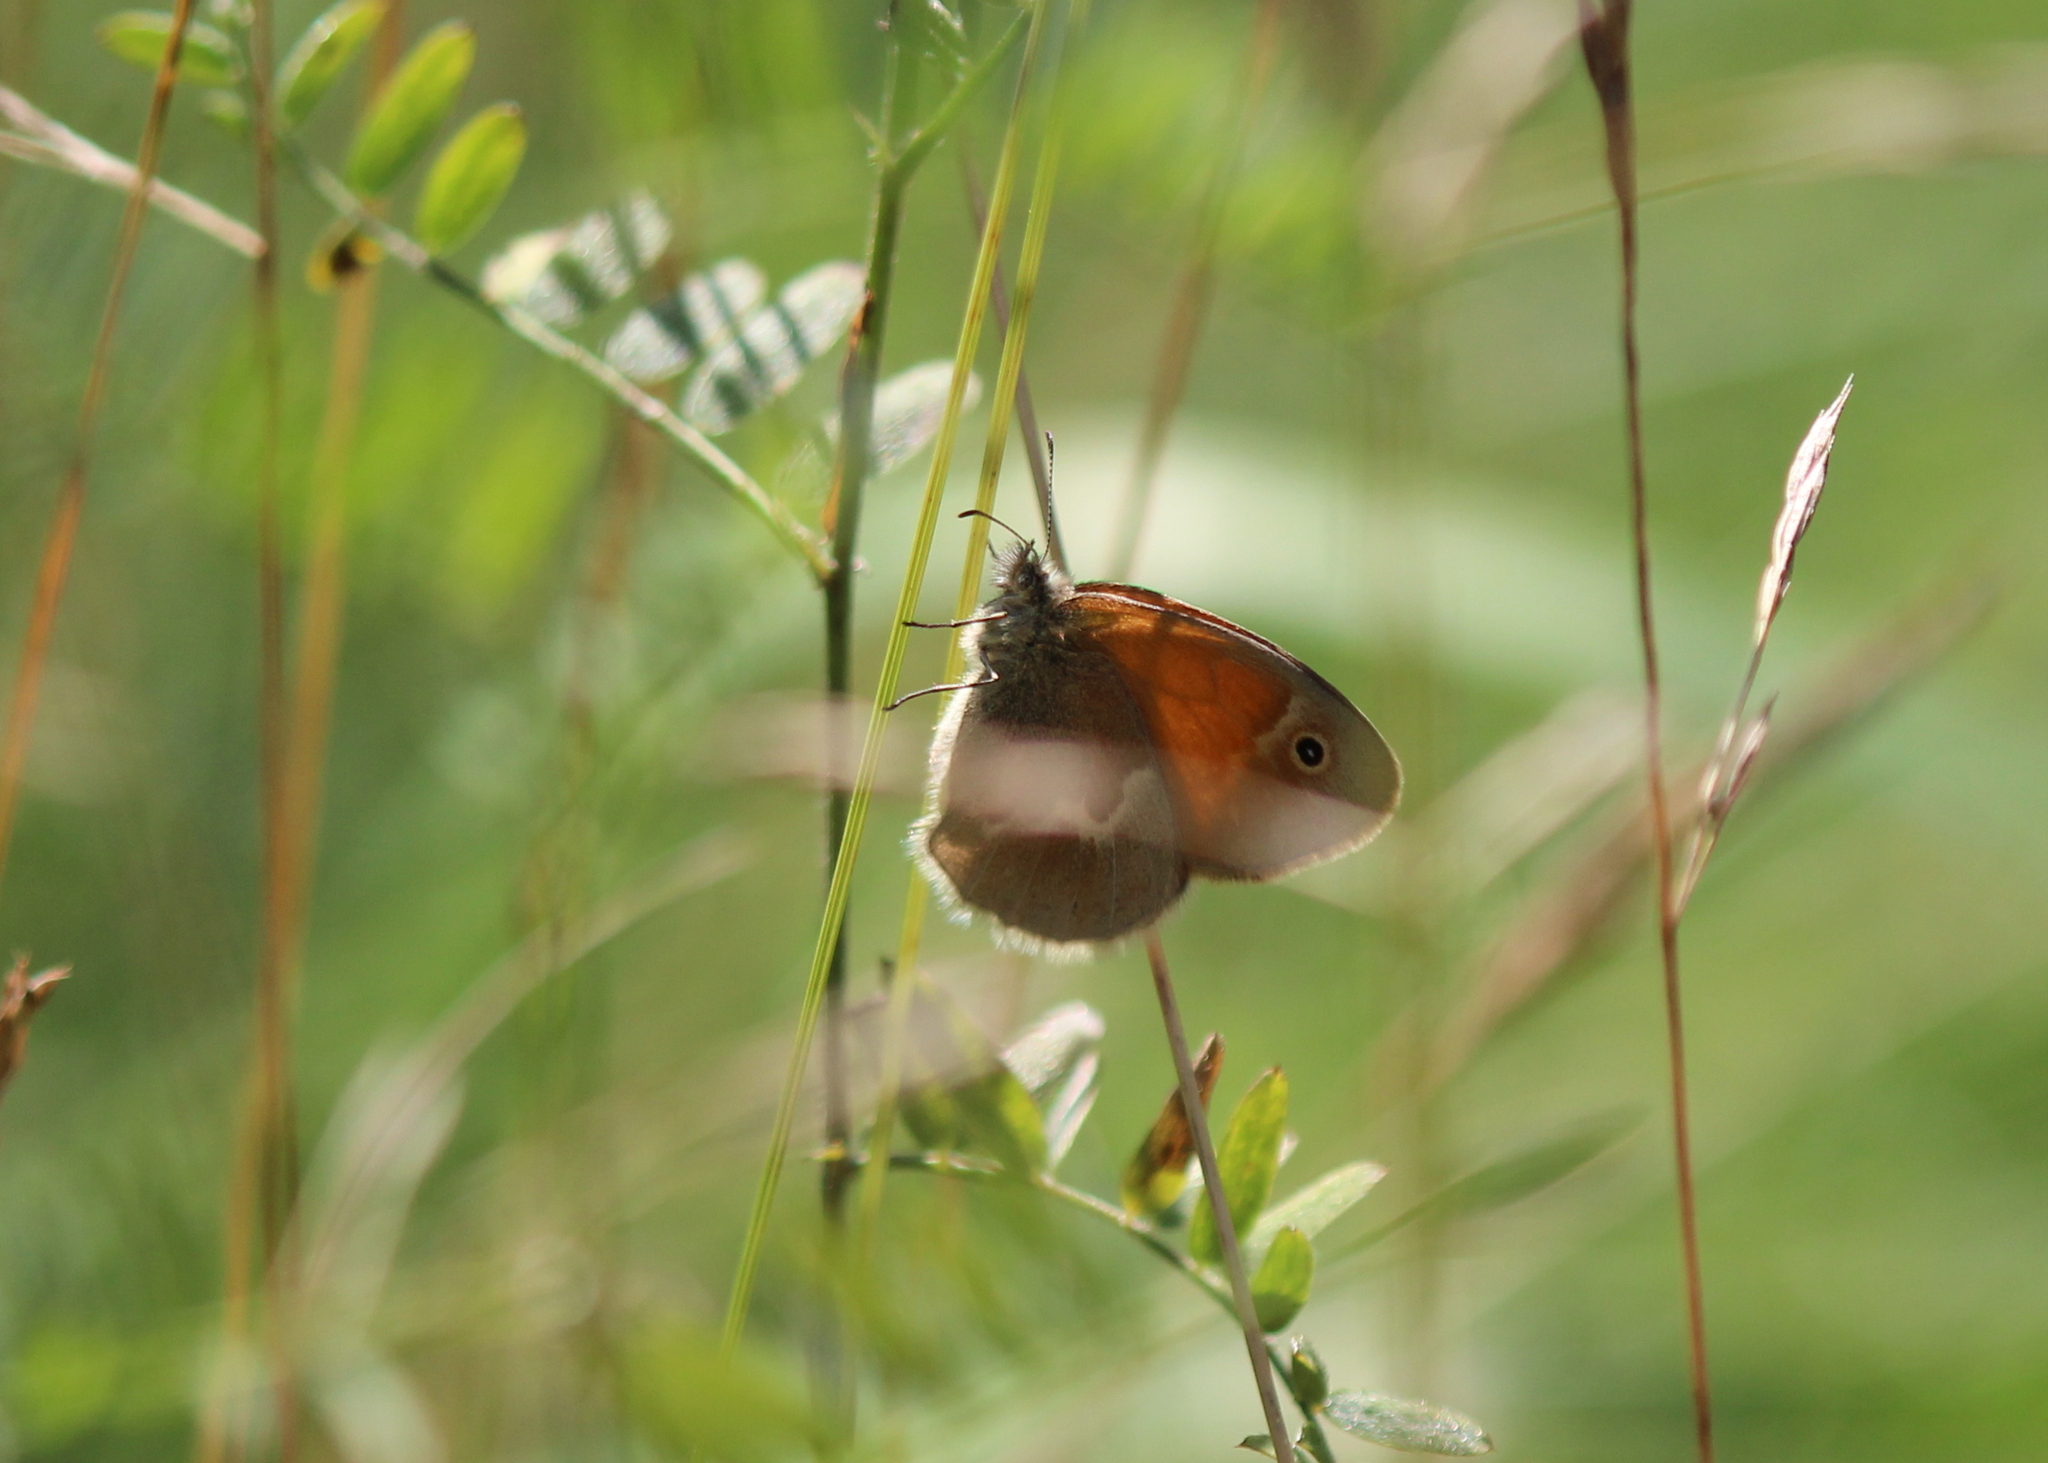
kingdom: Animalia
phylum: Arthropoda
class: Insecta
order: Lepidoptera
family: Nymphalidae
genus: Coenonympha
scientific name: Coenonympha california
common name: Common ringlet
